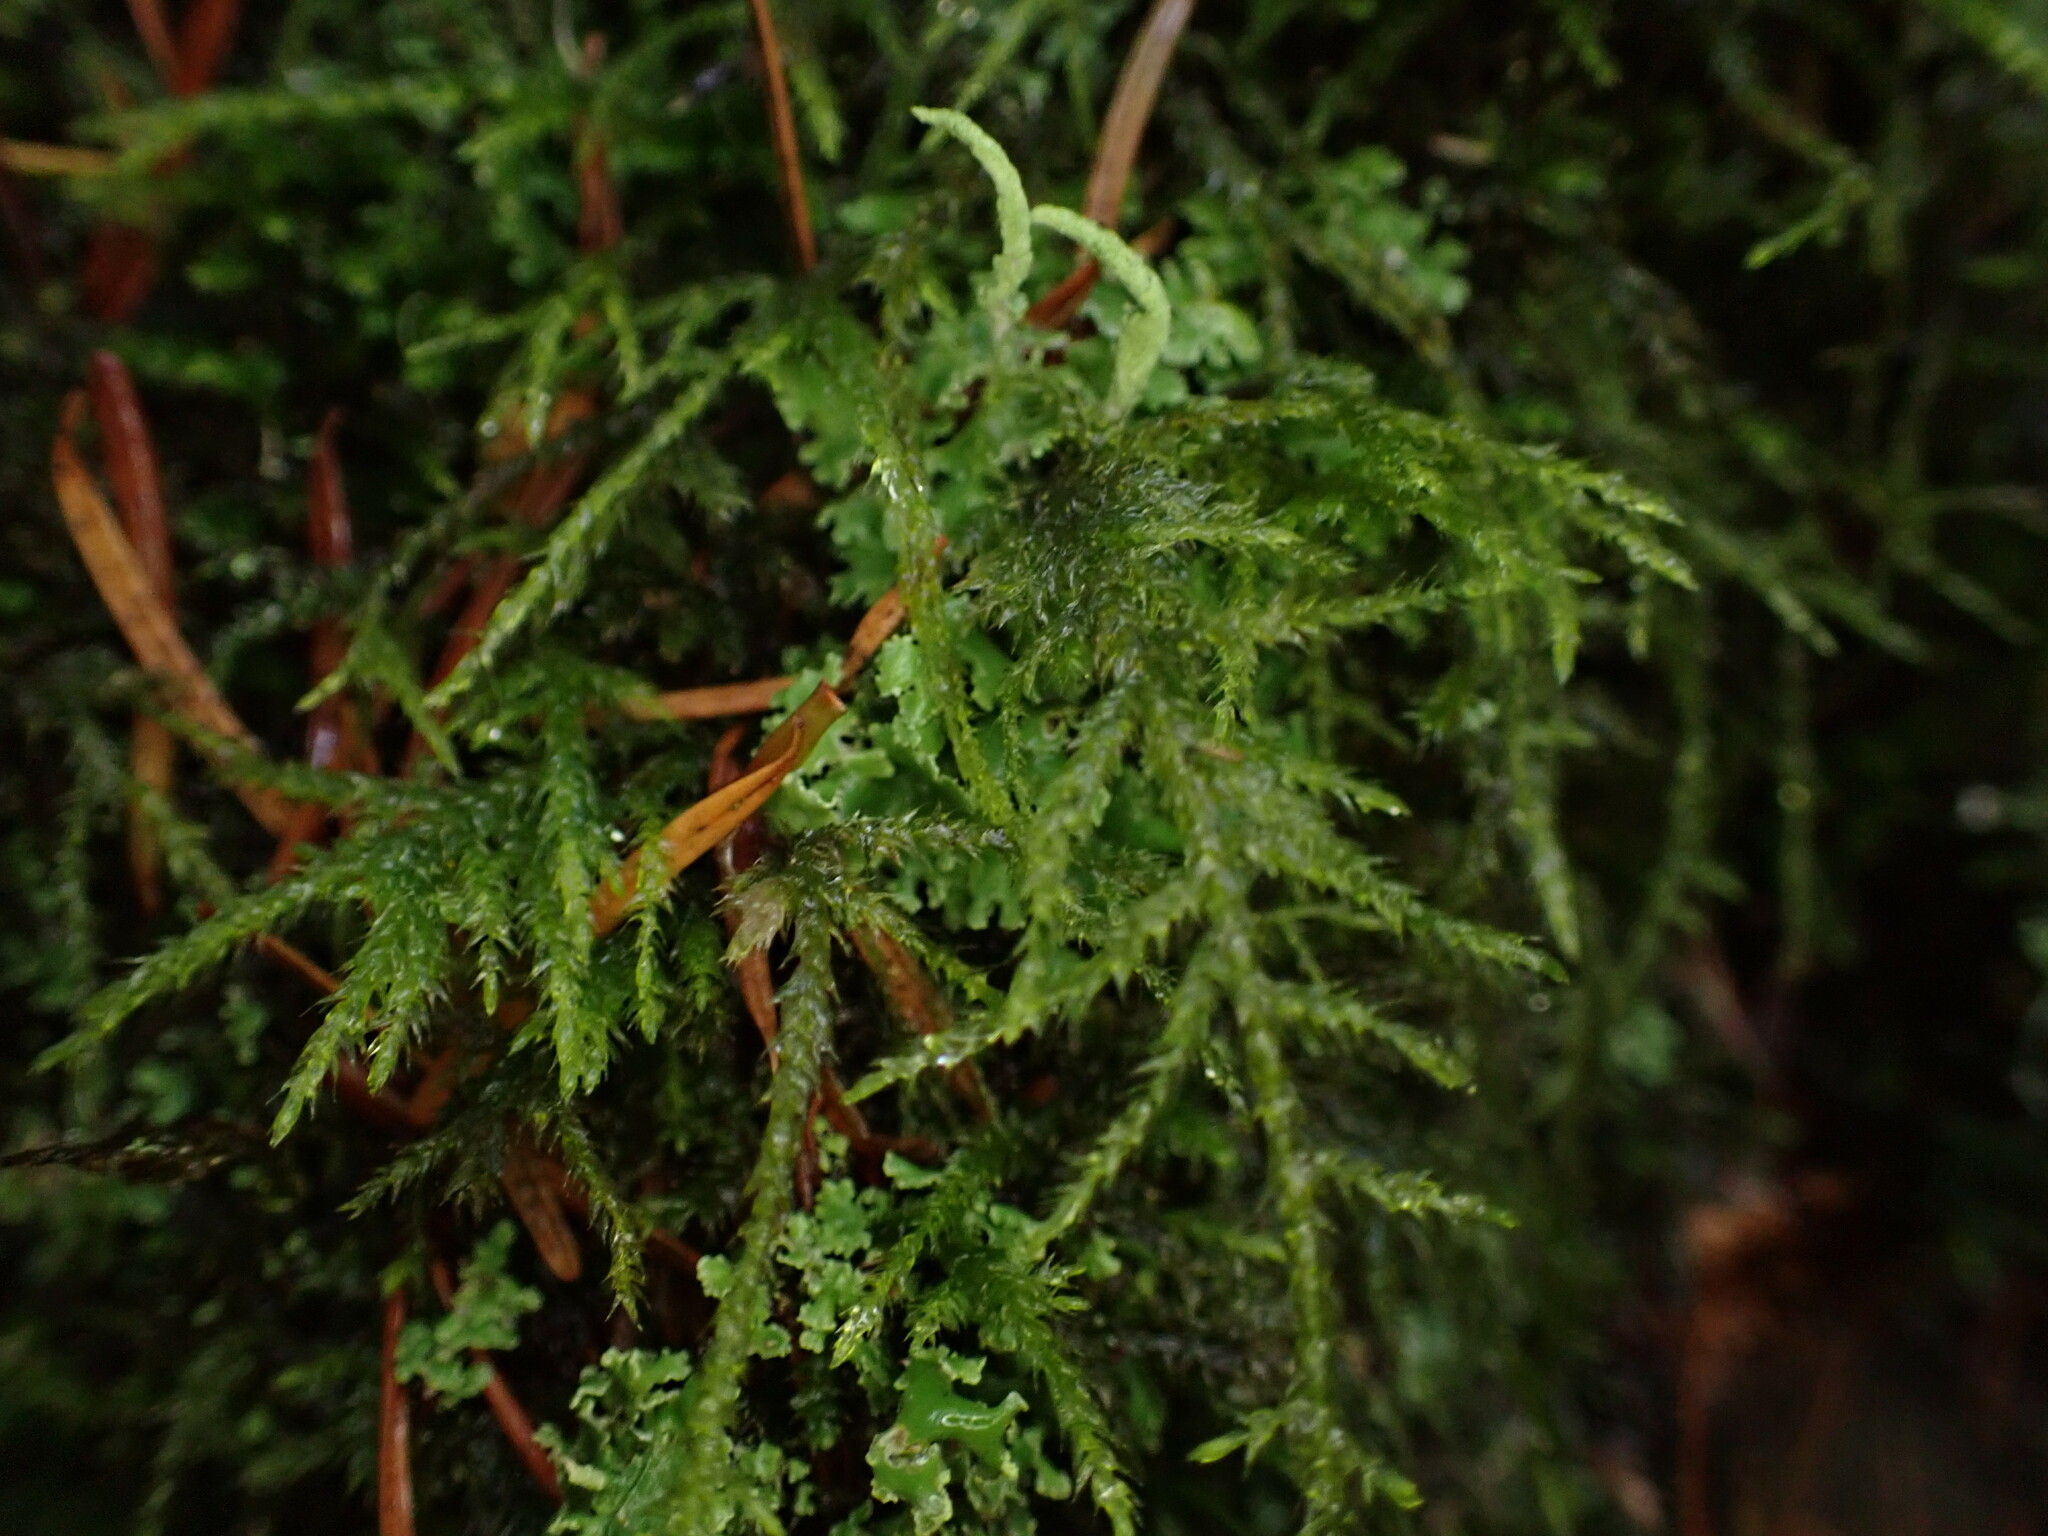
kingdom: Plantae
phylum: Bryophyta
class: Bryopsida
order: Hypnales
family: Lembophyllaceae
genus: Pseudisothecium
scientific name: Pseudisothecium stoloniferum
